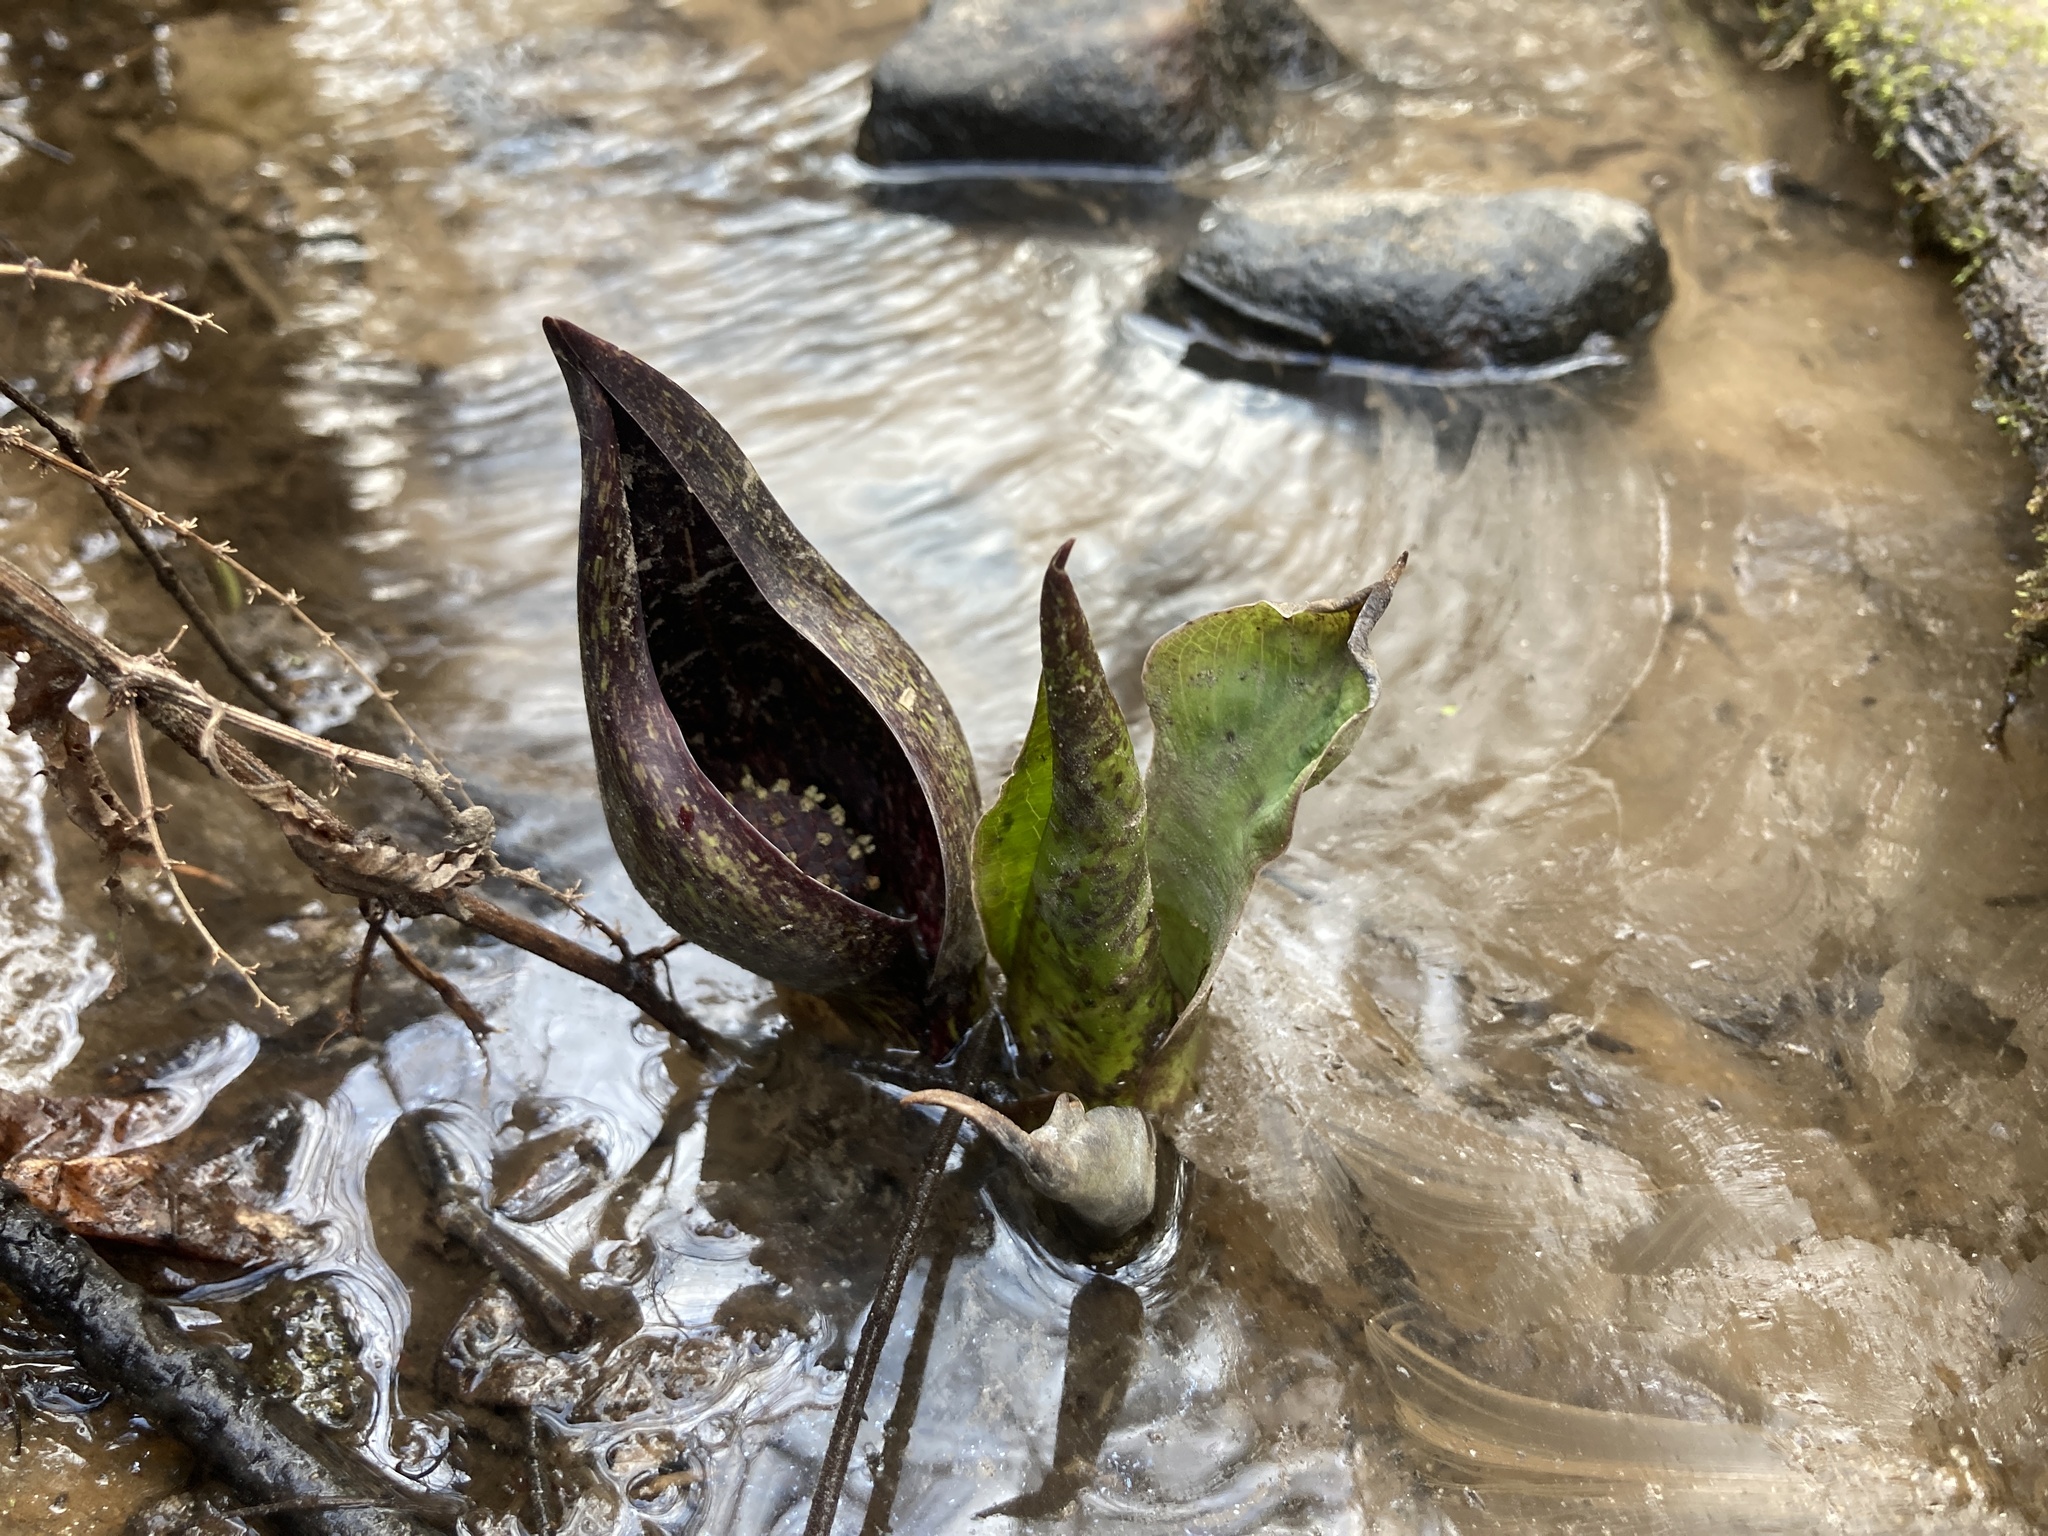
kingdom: Plantae
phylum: Tracheophyta
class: Liliopsida
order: Alismatales
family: Araceae
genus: Symplocarpus
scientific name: Symplocarpus foetidus
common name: Eastern skunk cabbage
